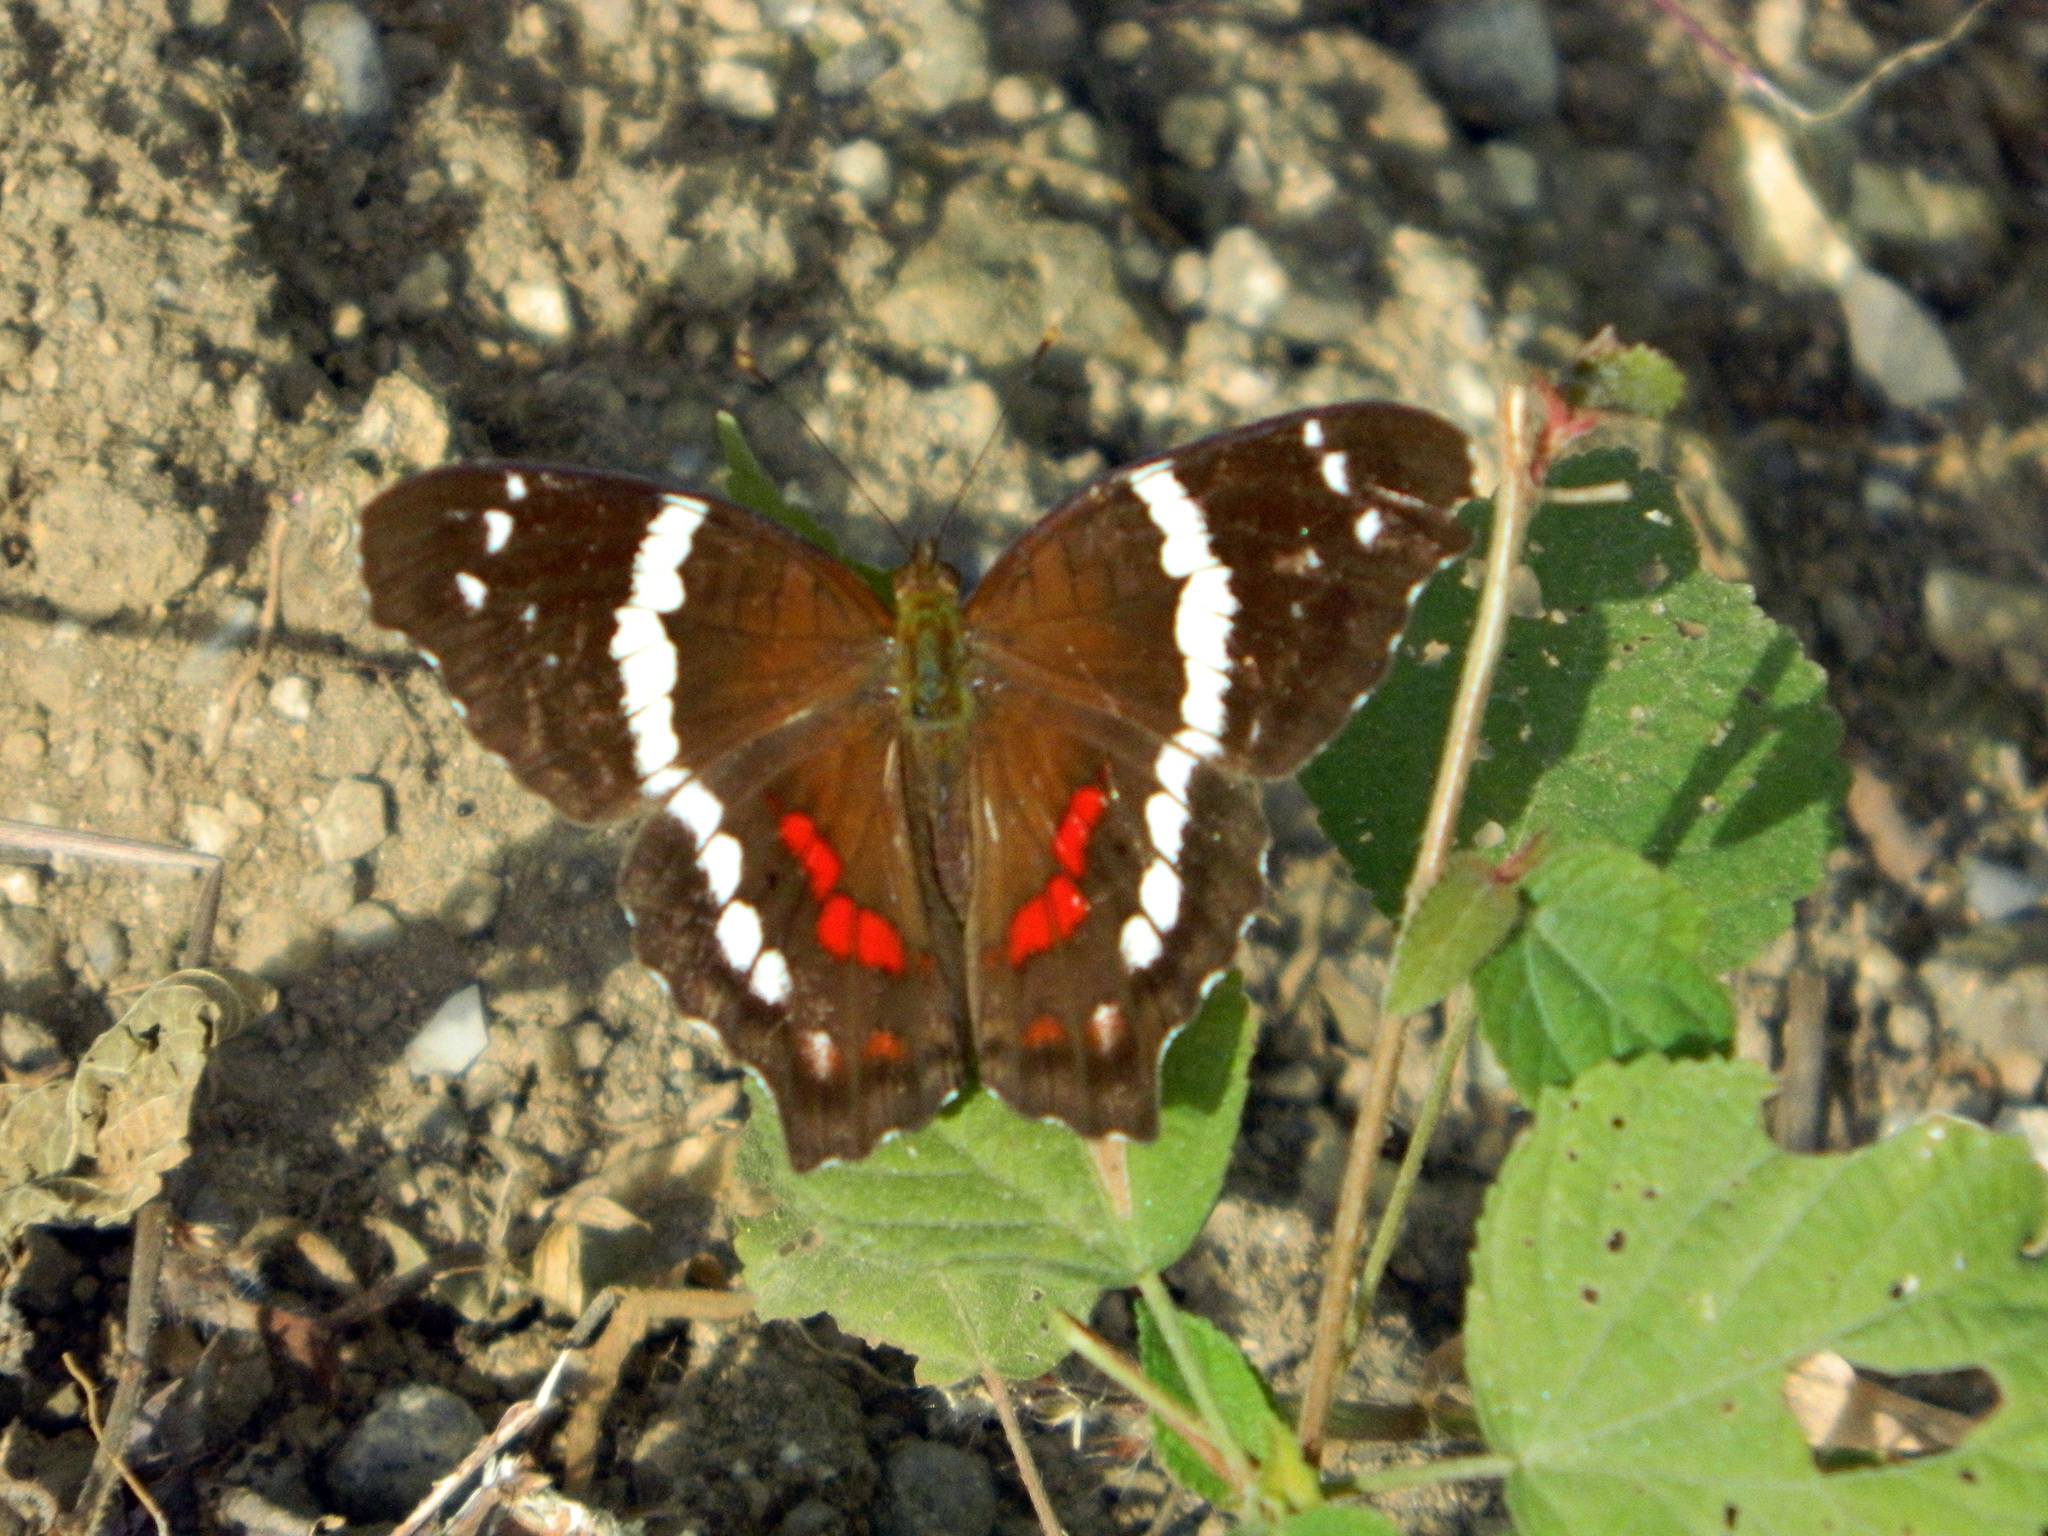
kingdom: Animalia
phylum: Arthropoda
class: Insecta
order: Lepidoptera
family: Nymphalidae
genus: Anartia
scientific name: Anartia fatima
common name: Banded peacock
